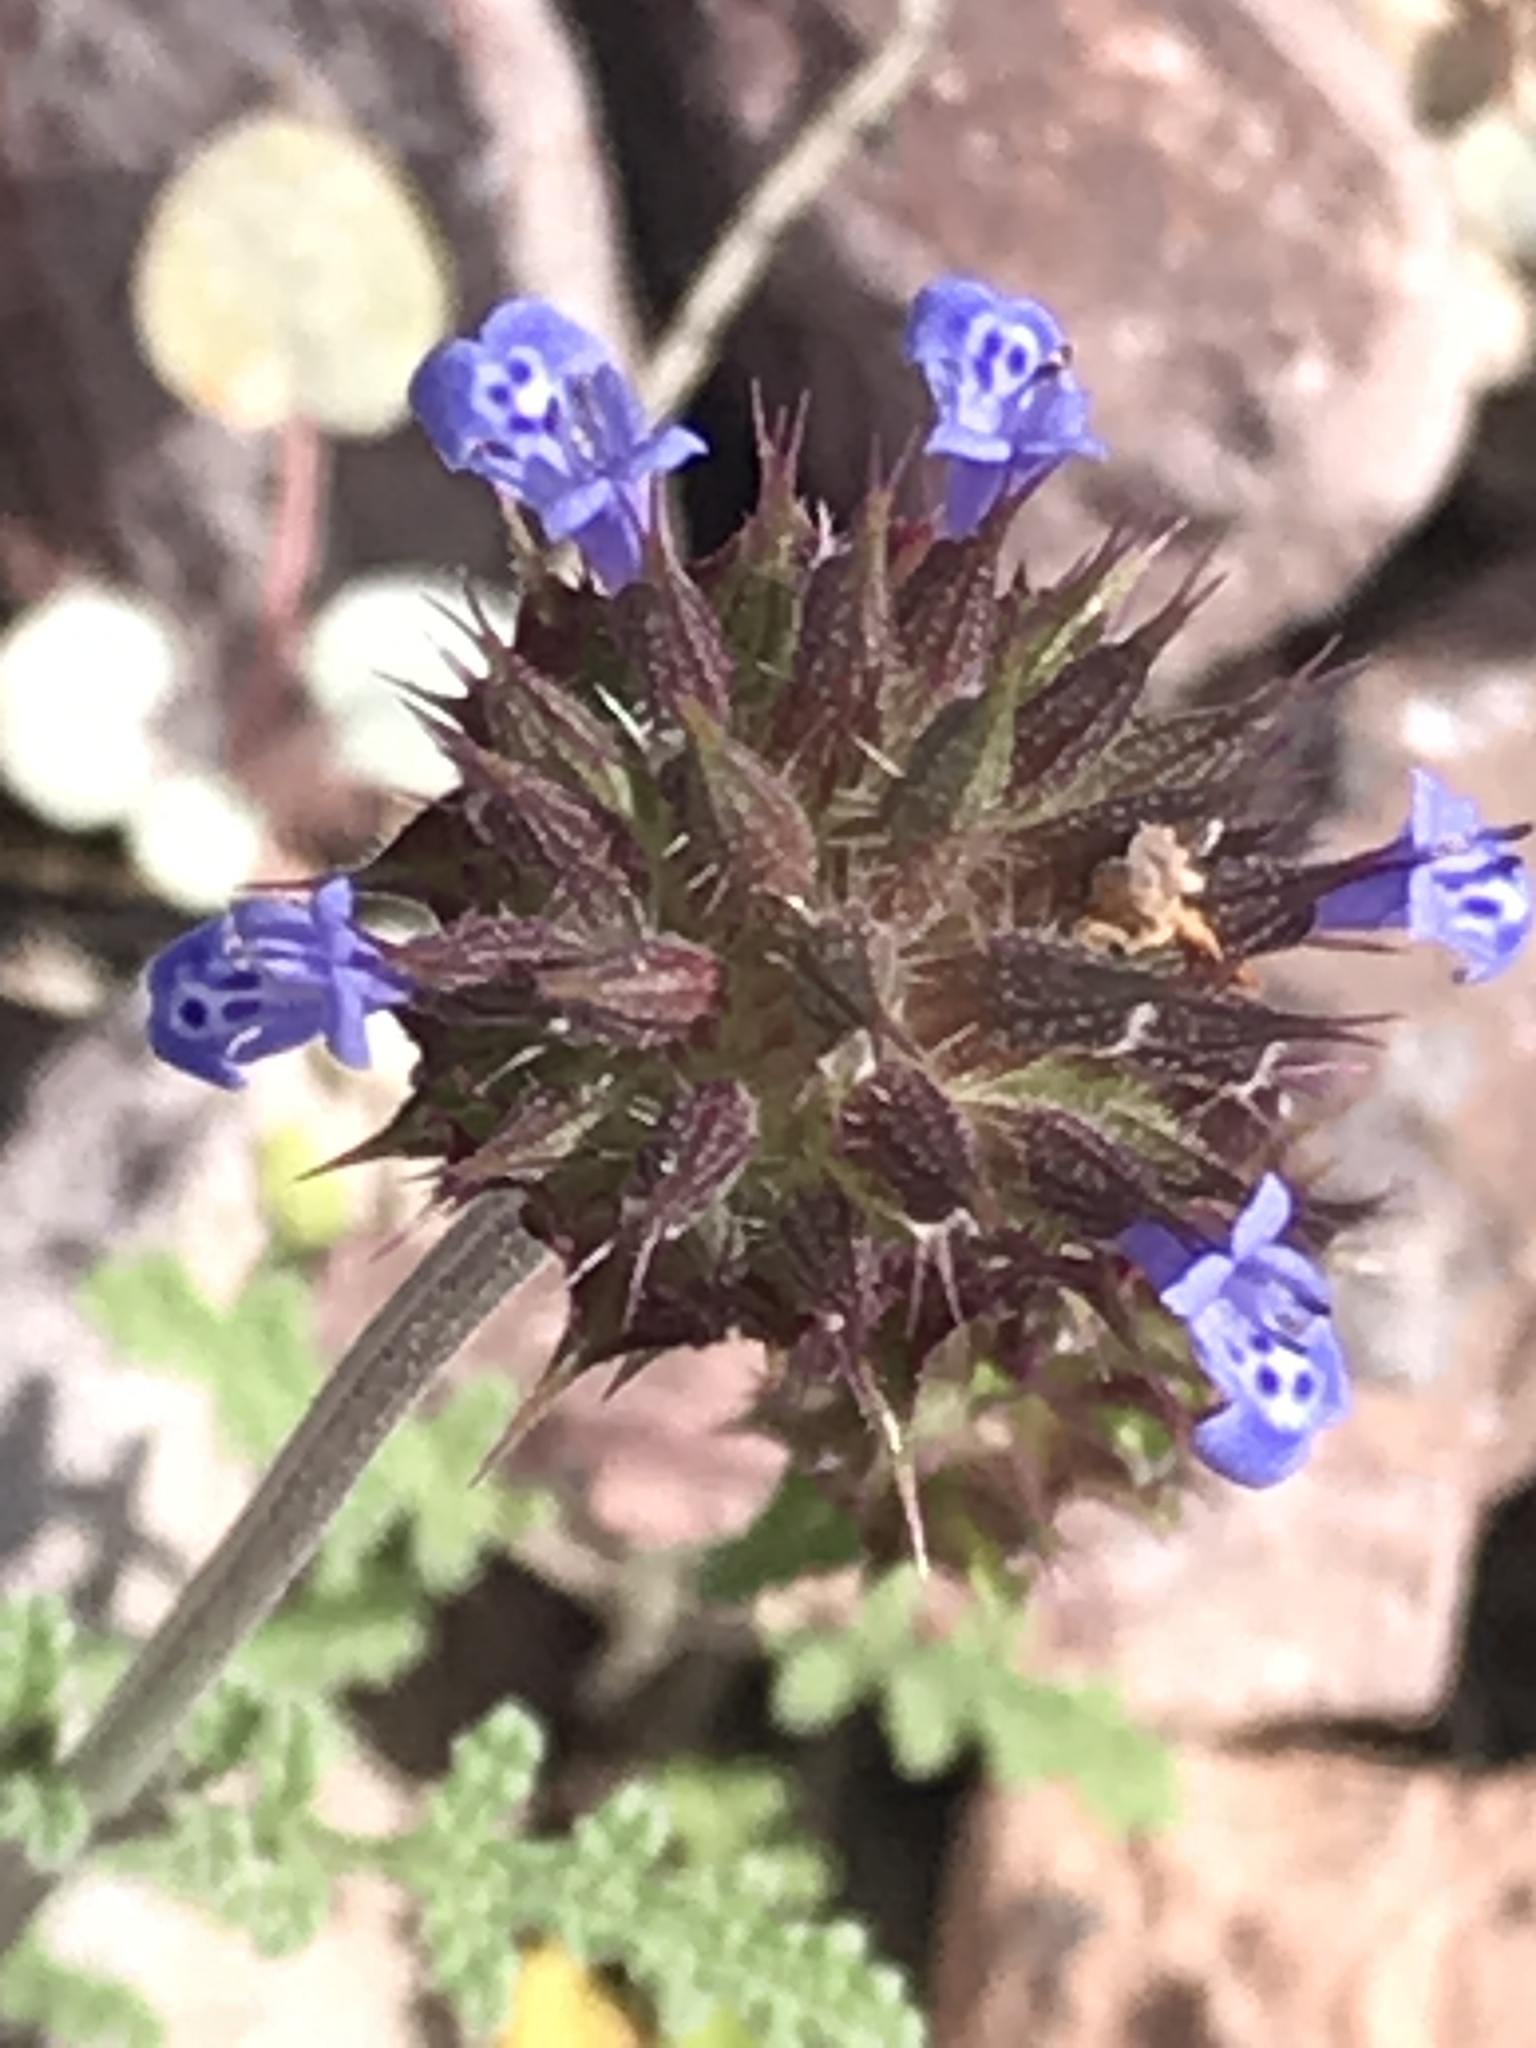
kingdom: Plantae
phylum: Tracheophyta
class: Magnoliopsida
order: Lamiales
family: Lamiaceae
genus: Salvia
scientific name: Salvia columbariae
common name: Chia
